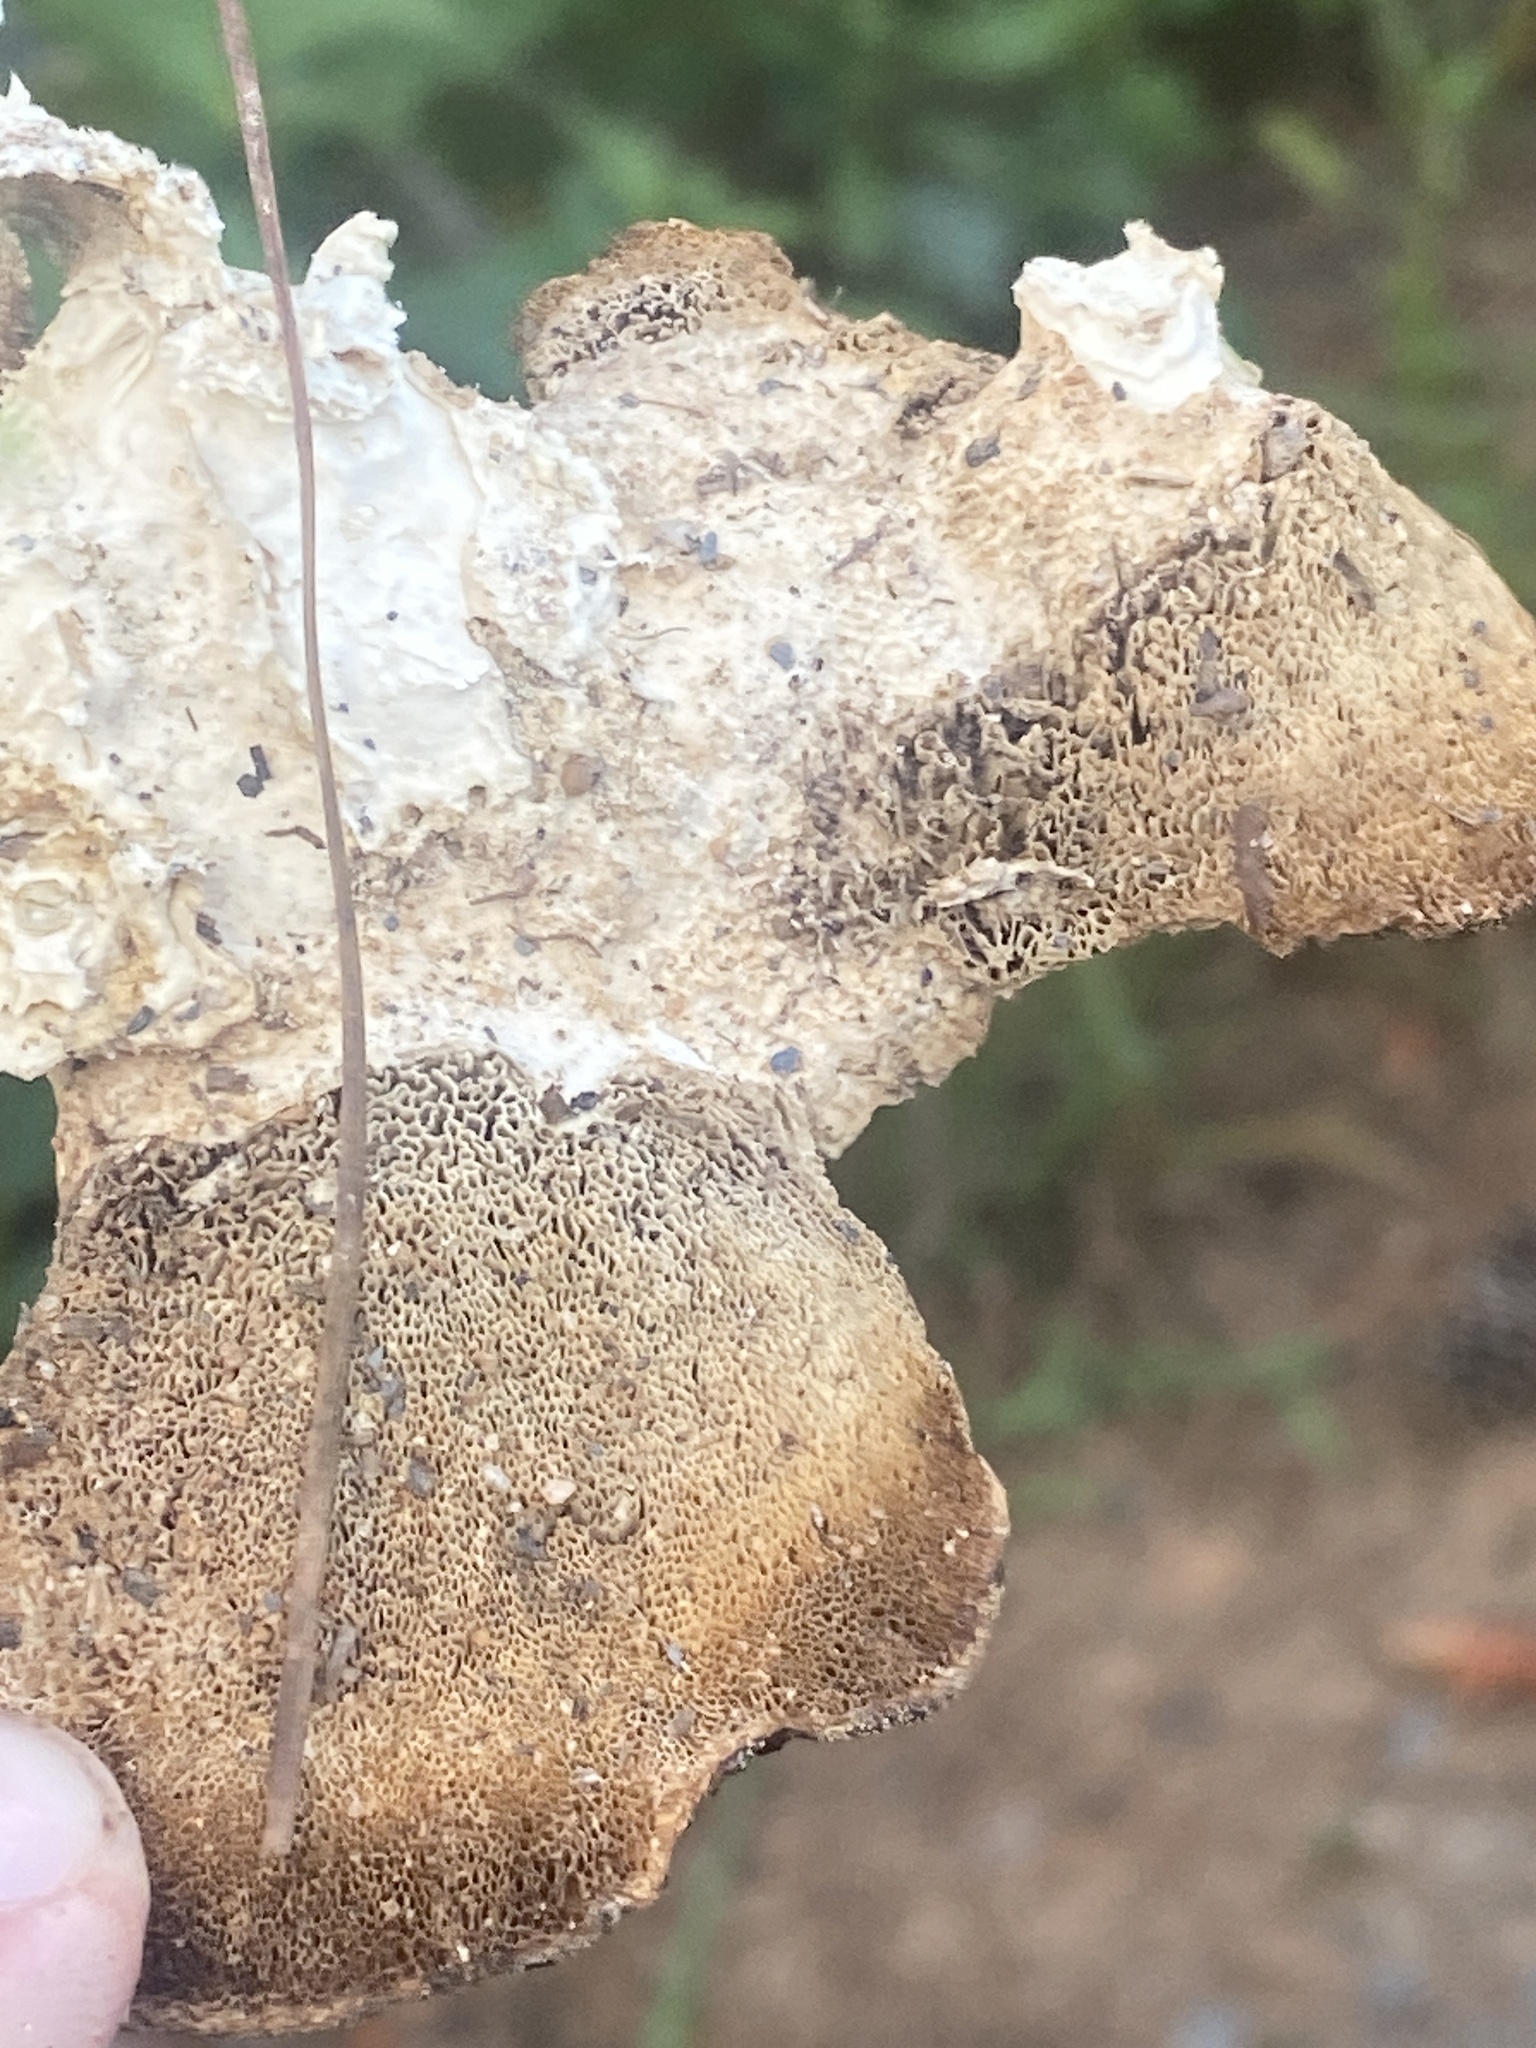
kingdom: Fungi
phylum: Basidiomycota
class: Agaricomycetes
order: Polyporales
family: Meripilaceae
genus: Meripilus
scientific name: Meripilus sumstinei
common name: Black-staining polypore
